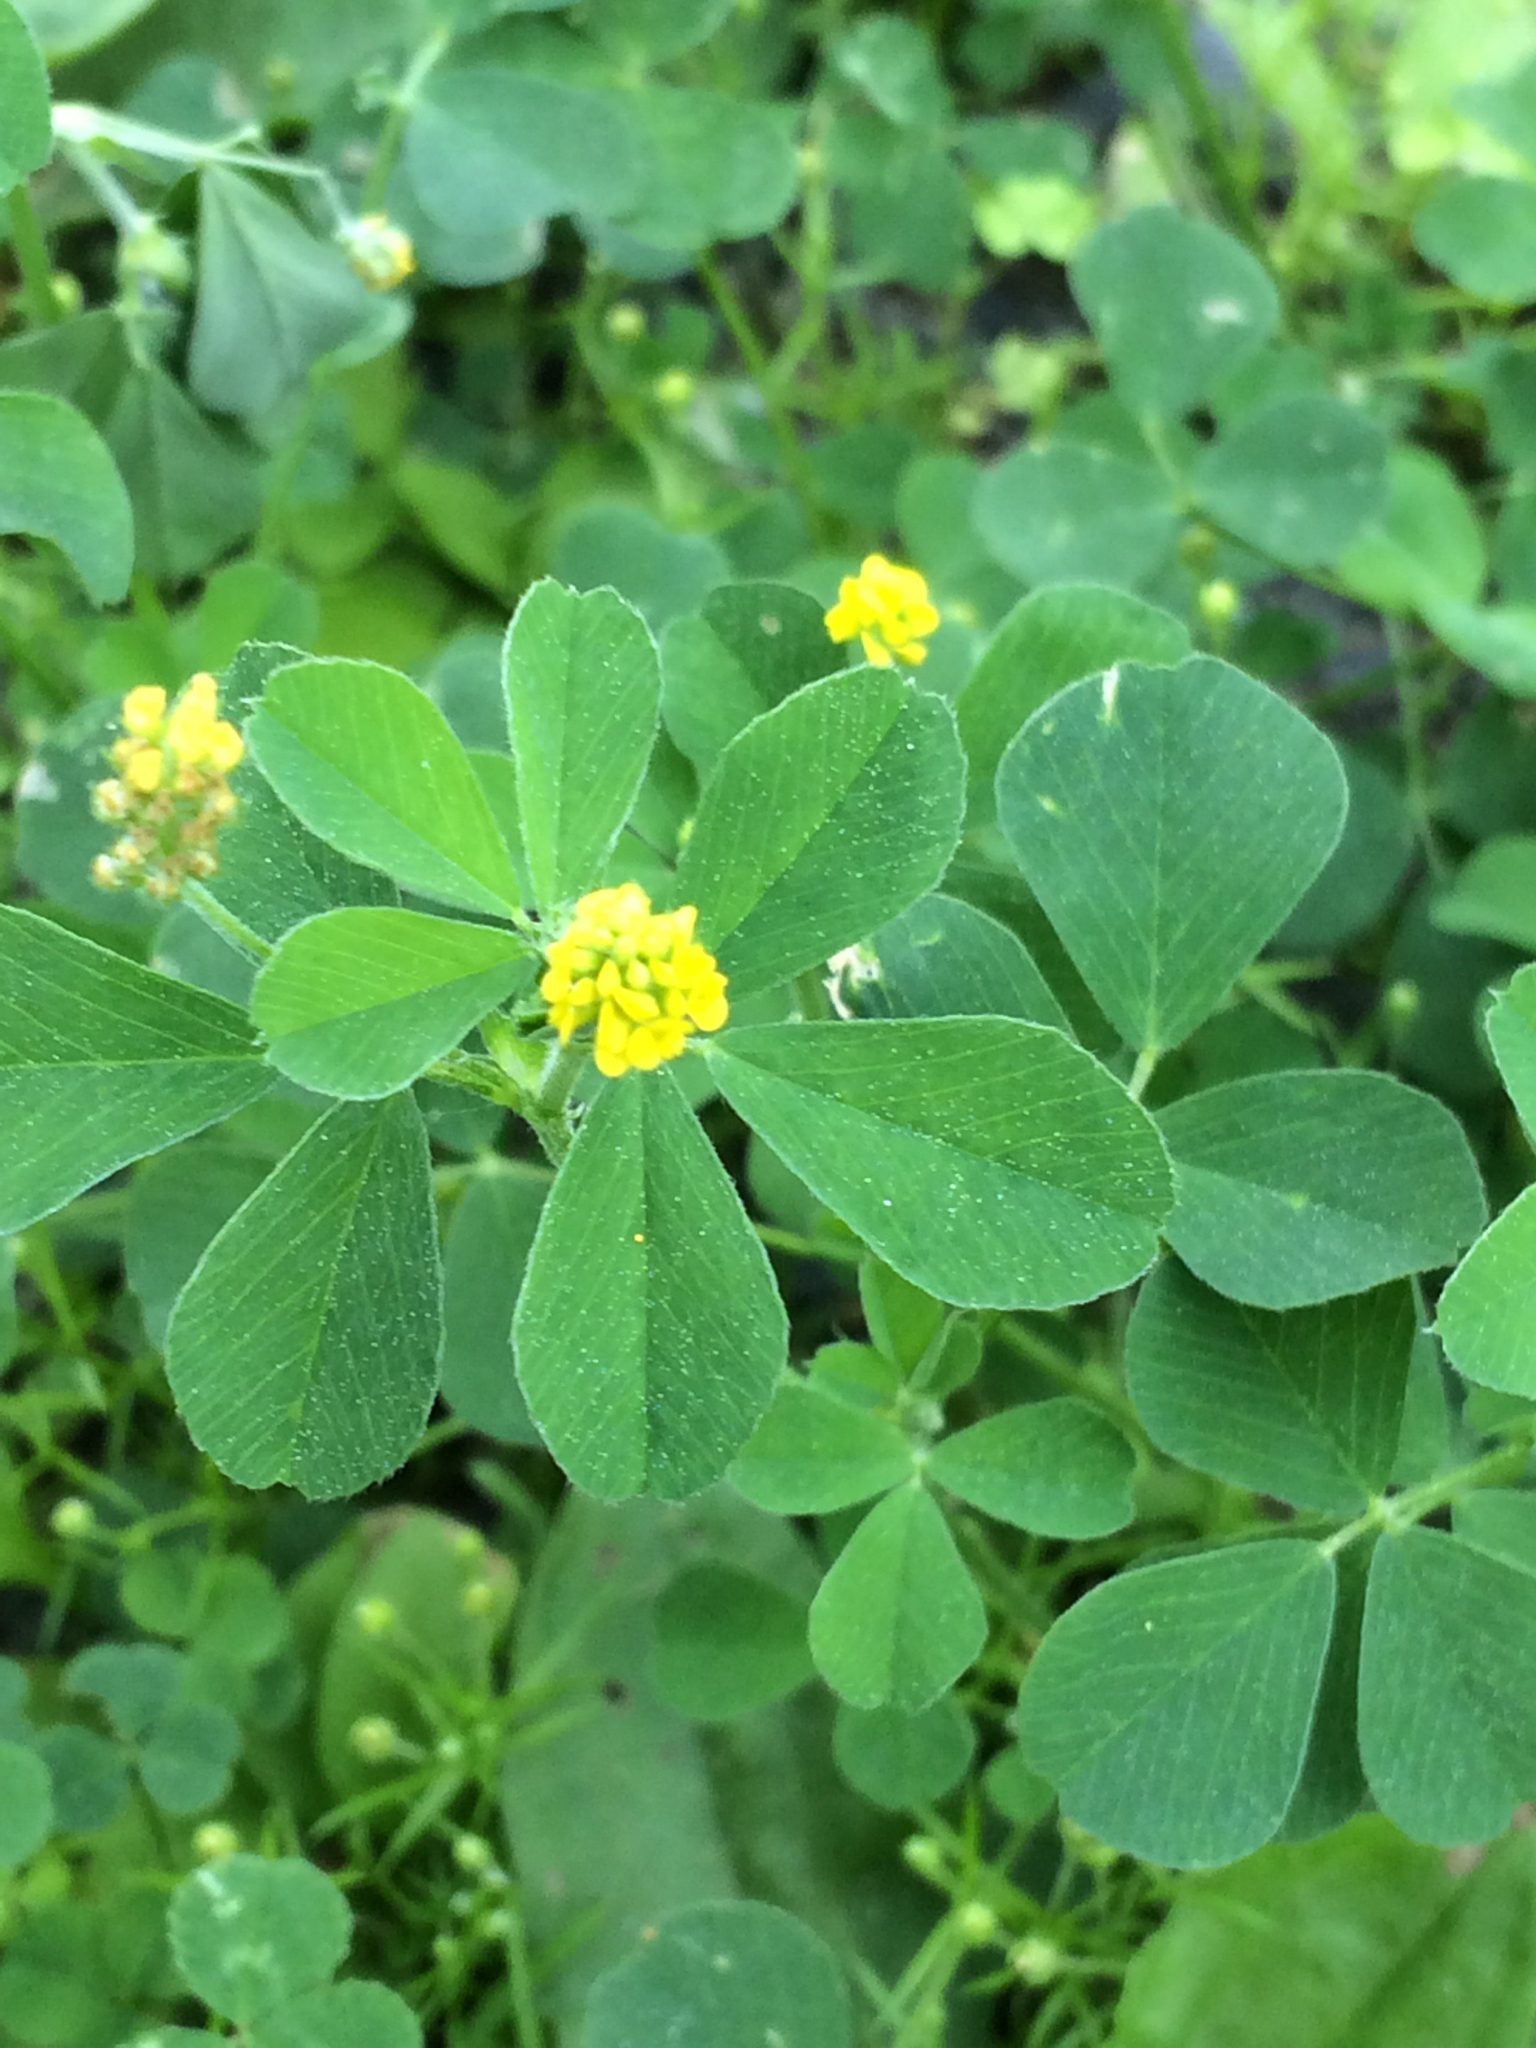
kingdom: Plantae
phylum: Tracheophyta
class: Magnoliopsida
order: Fabales
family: Fabaceae
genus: Medicago
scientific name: Medicago lupulina
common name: Black medick
